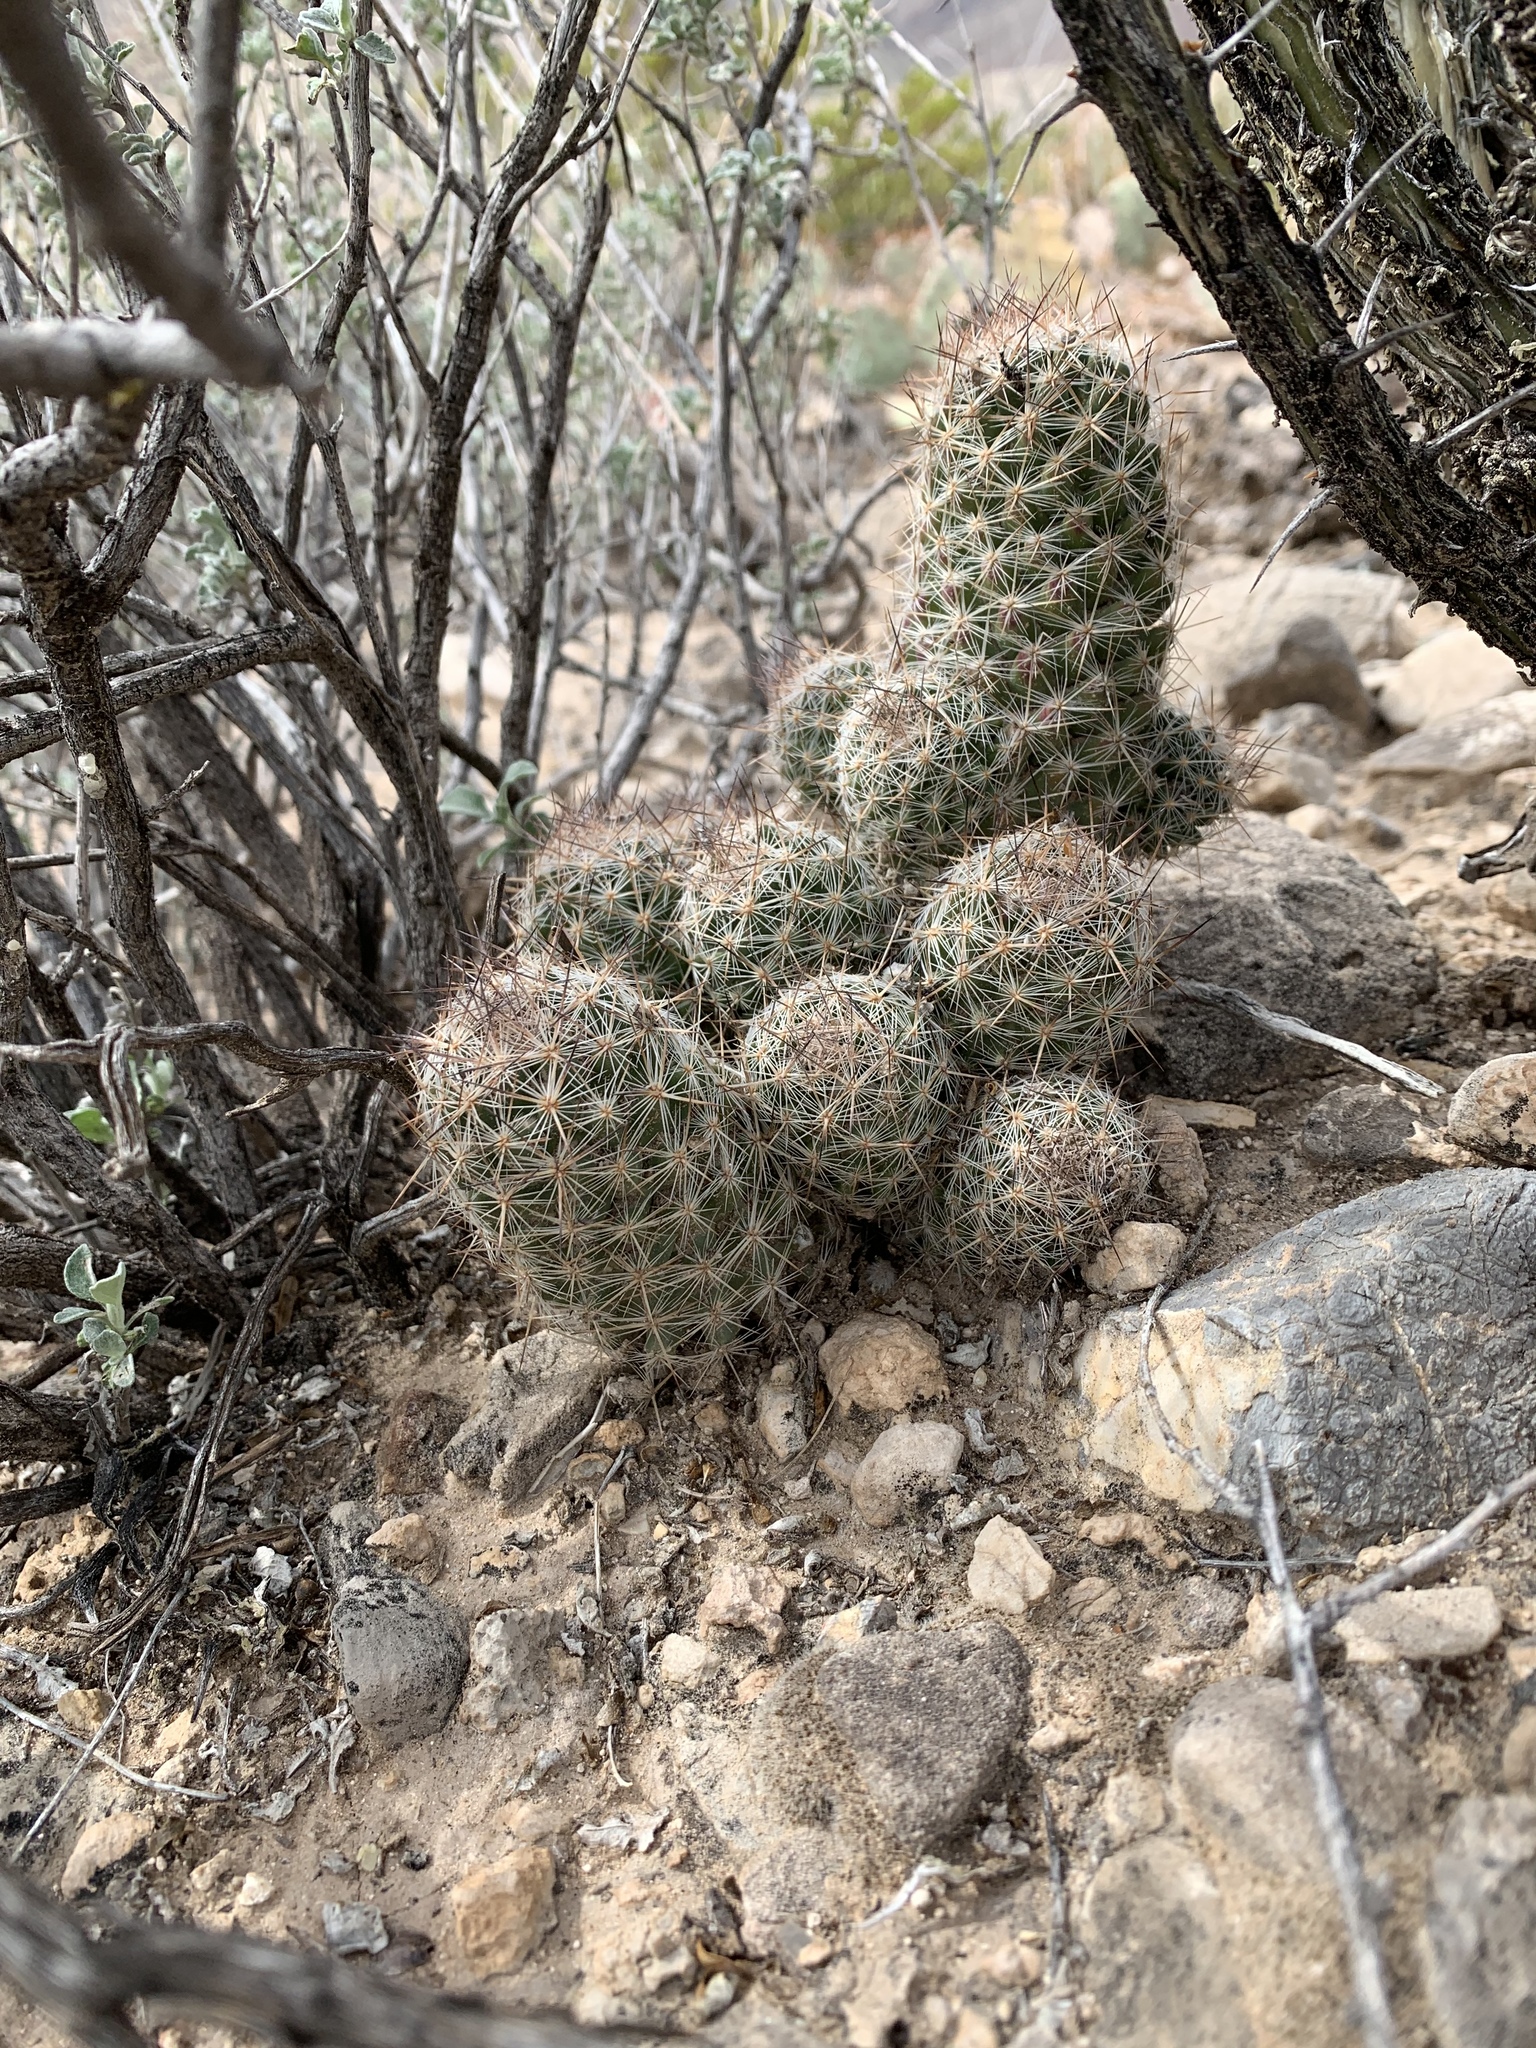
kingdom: Plantae
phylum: Tracheophyta
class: Magnoliopsida
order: Caryophyllales
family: Cactaceae
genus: Pelecyphora
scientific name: Pelecyphora tuberculosa
